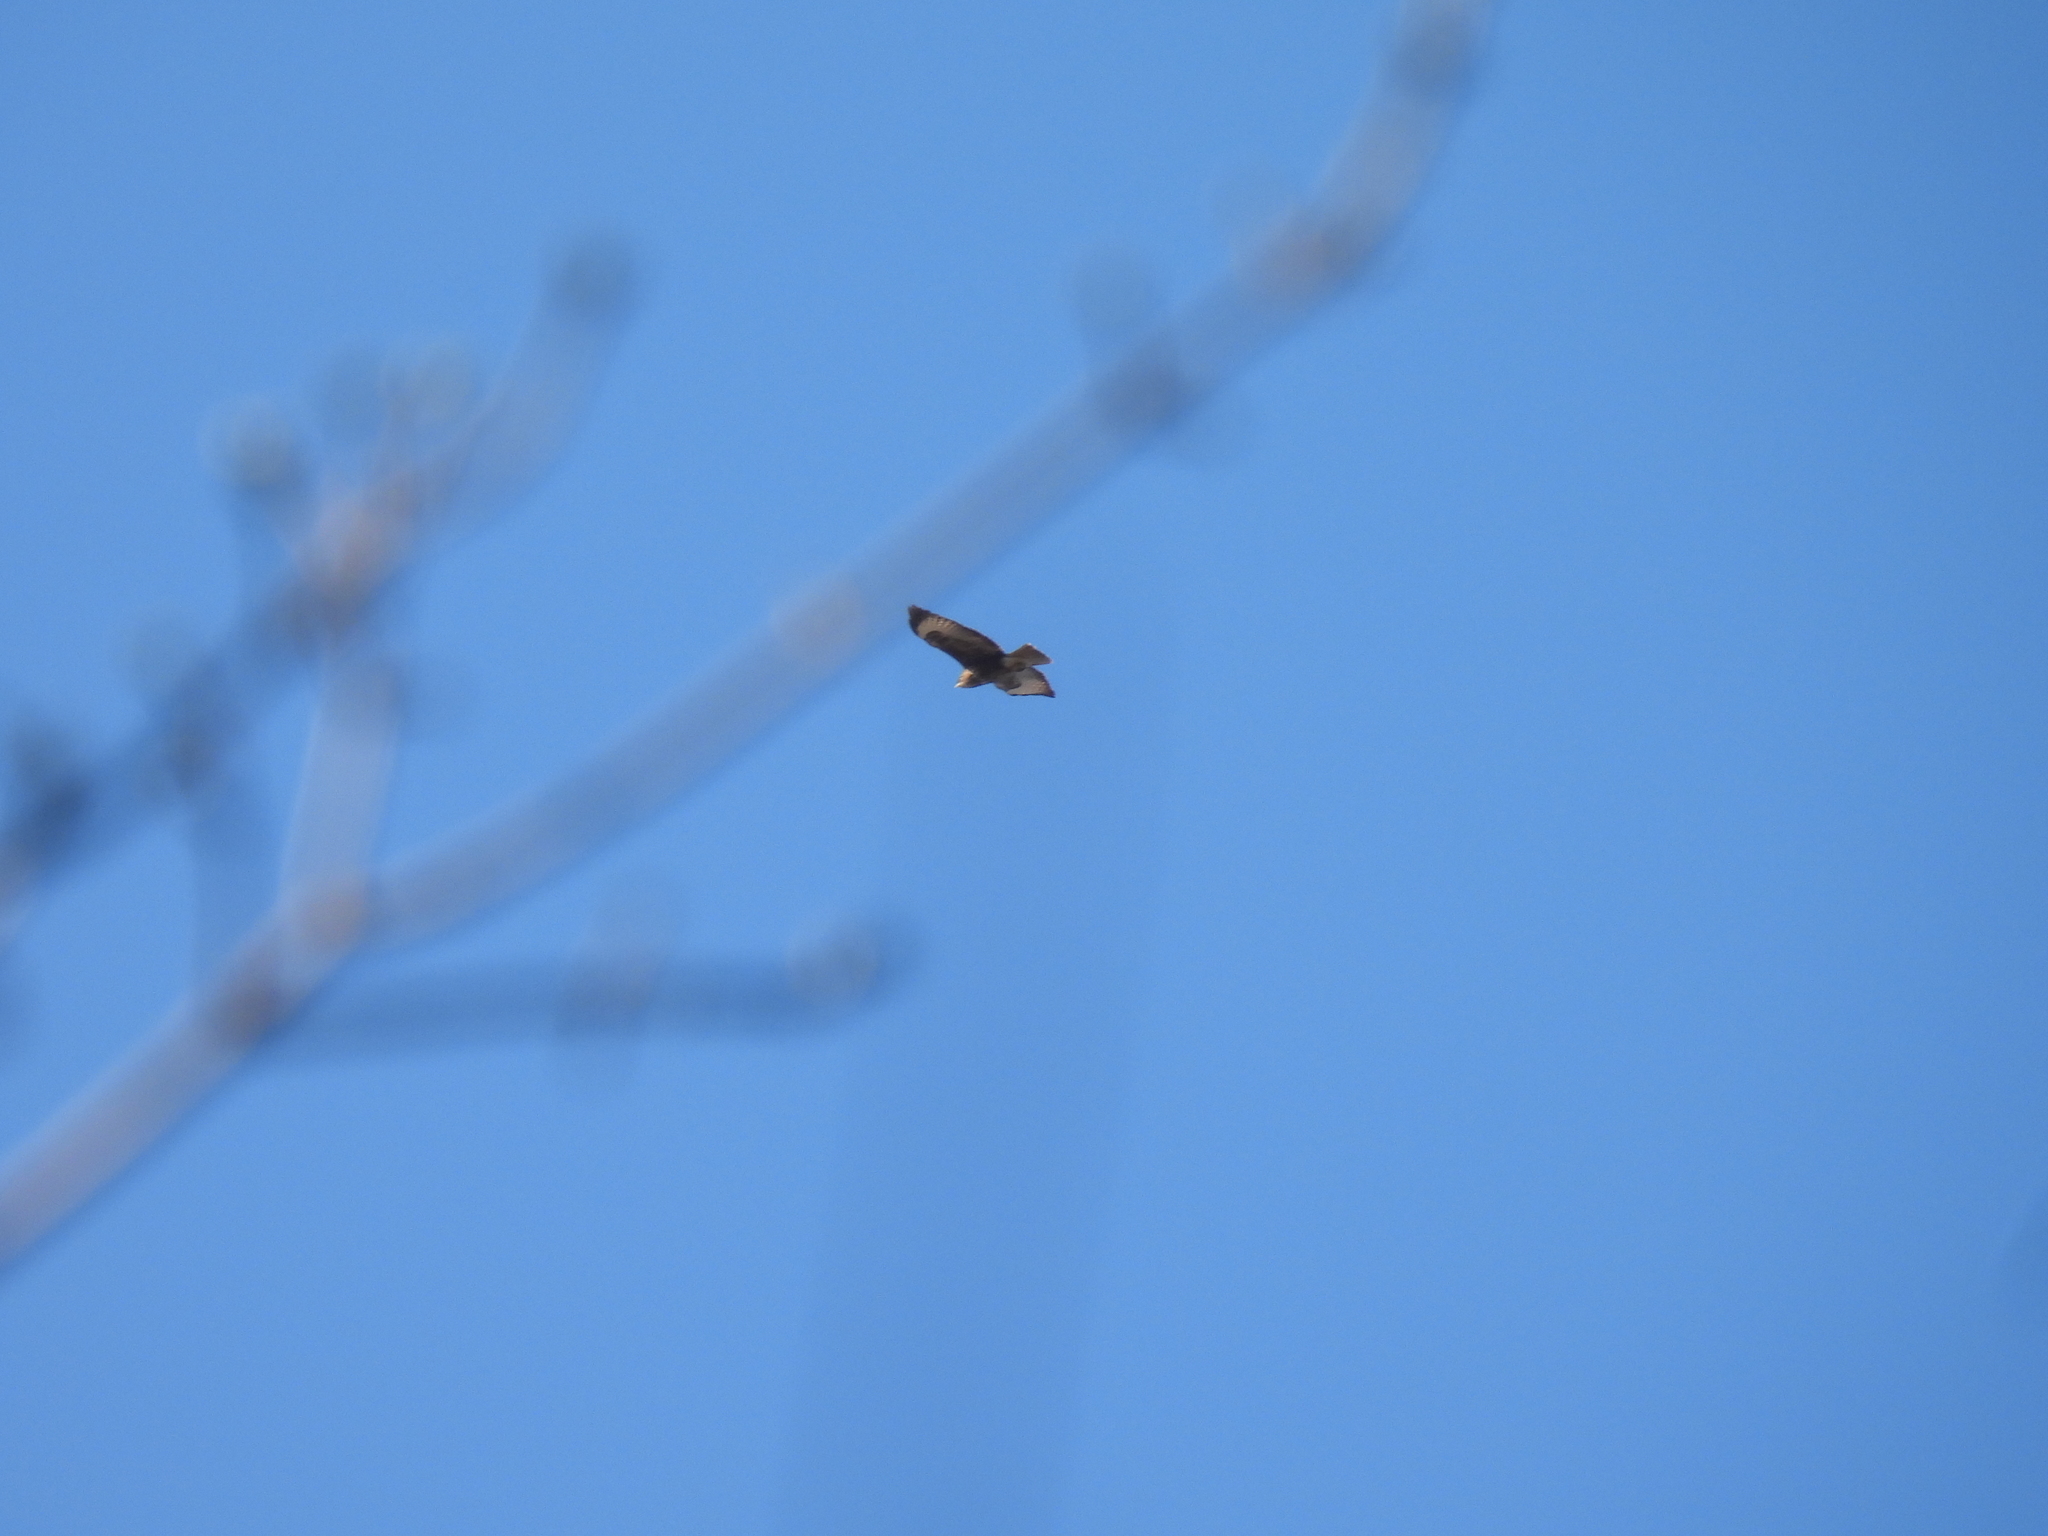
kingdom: Animalia
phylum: Chordata
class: Aves
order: Accipitriformes
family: Accipitridae
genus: Buteo
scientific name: Buteo buteo
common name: Common buzzard
